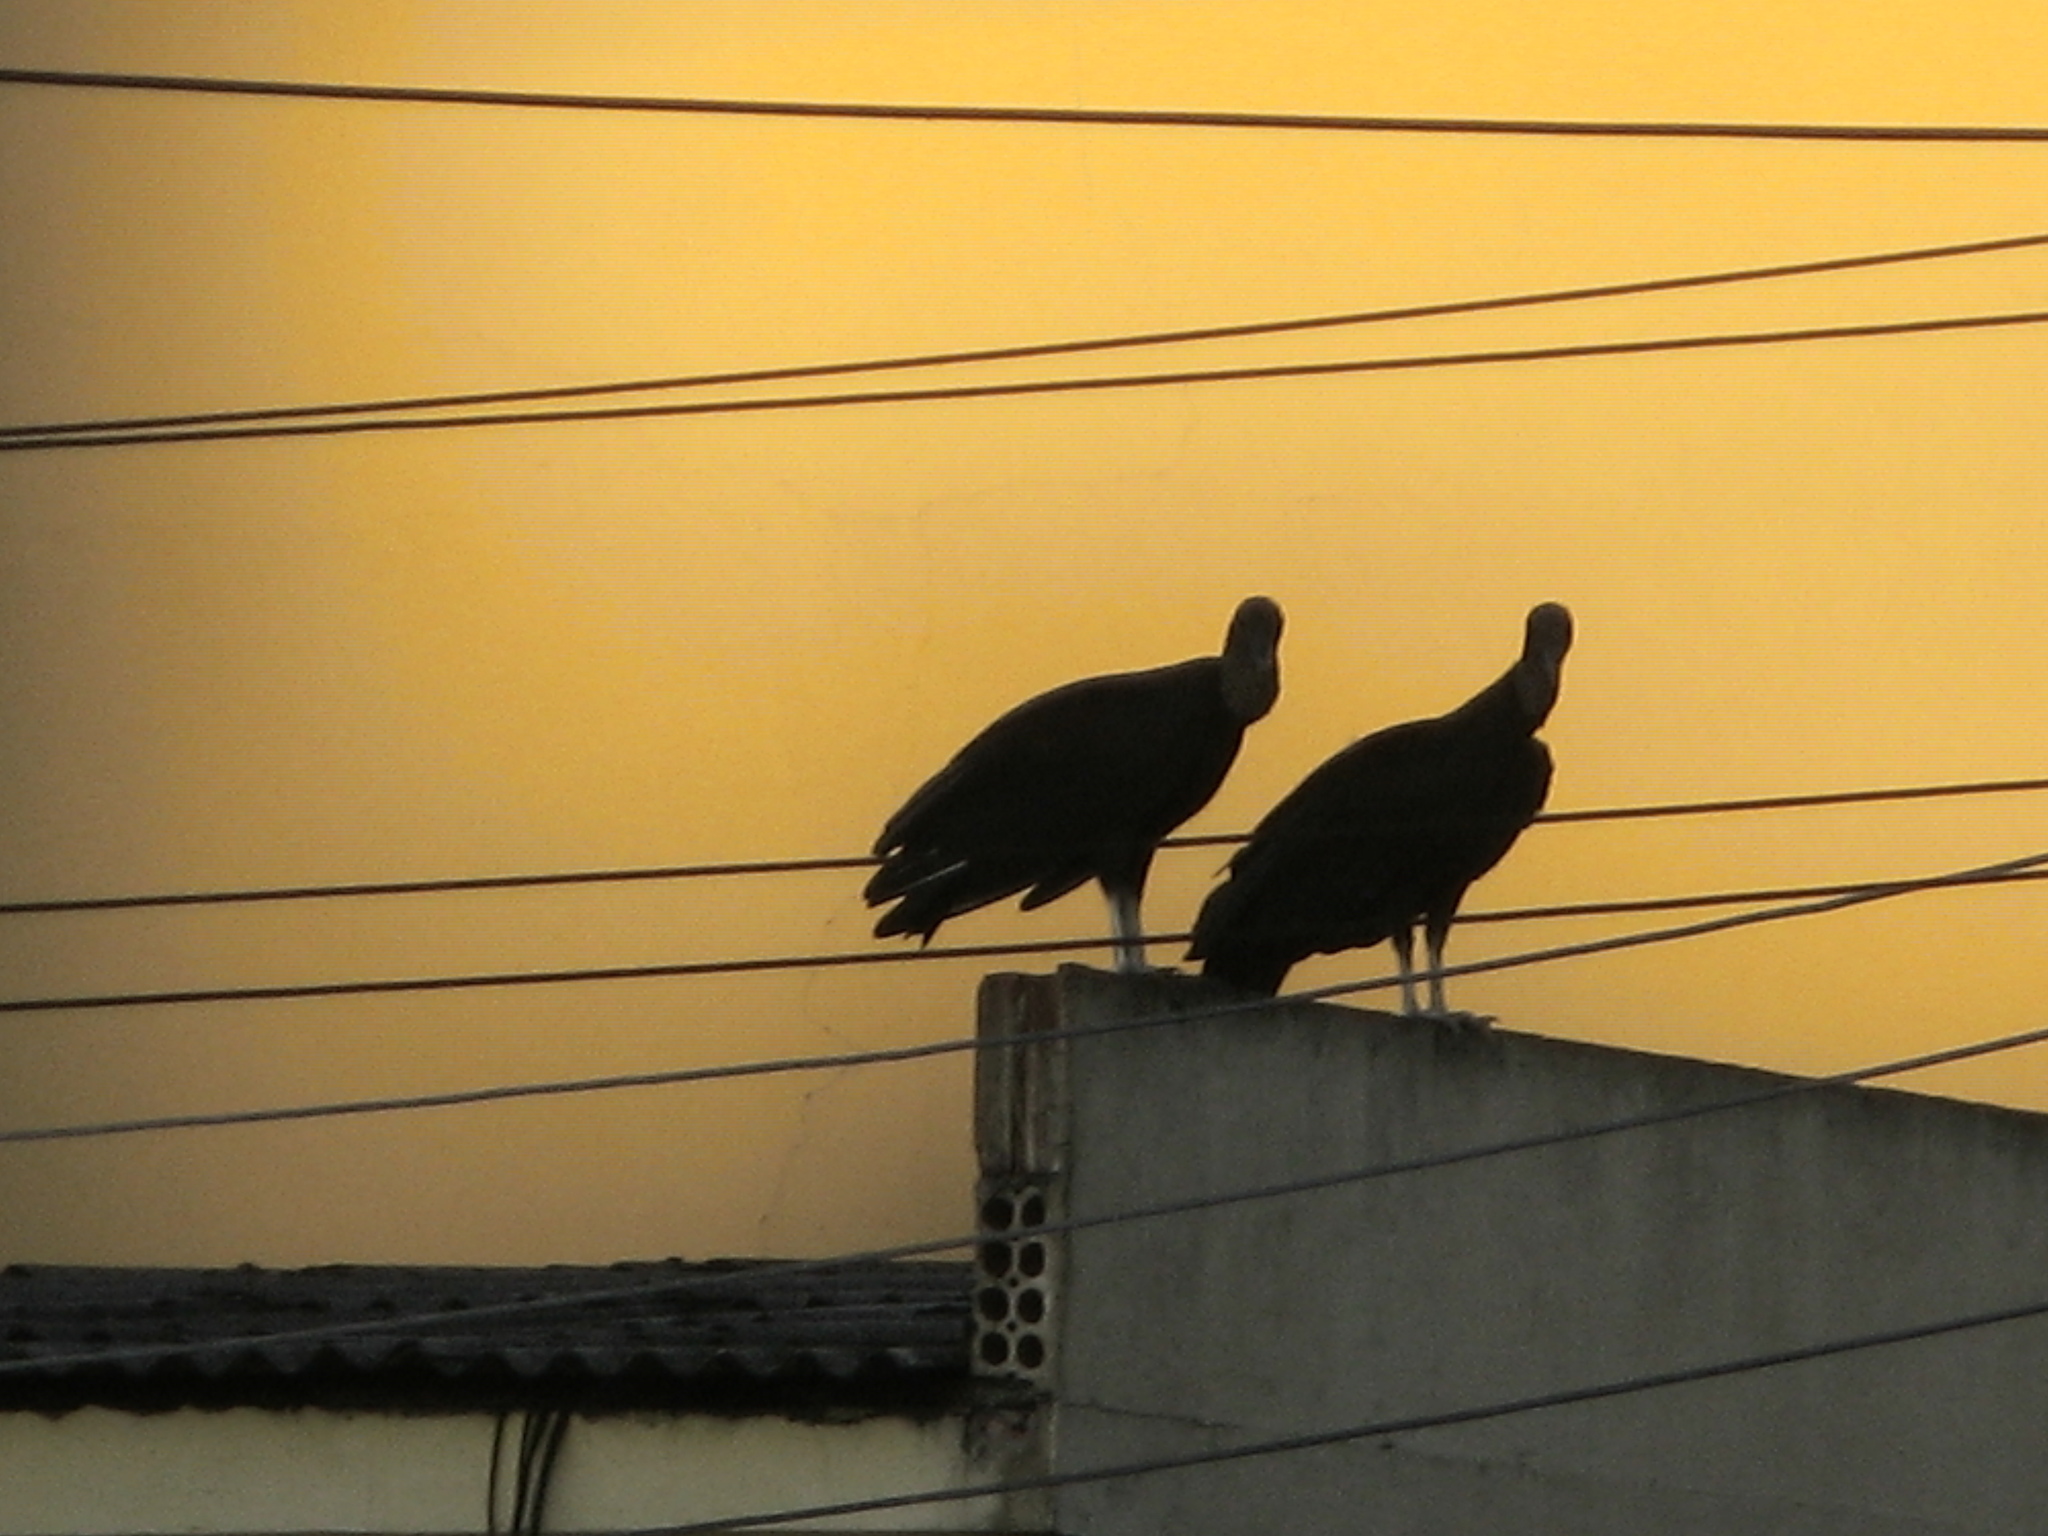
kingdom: Animalia
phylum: Chordata
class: Aves
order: Accipitriformes
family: Cathartidae
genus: Coragyps
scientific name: Coragyps atratus
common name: Black vulture
